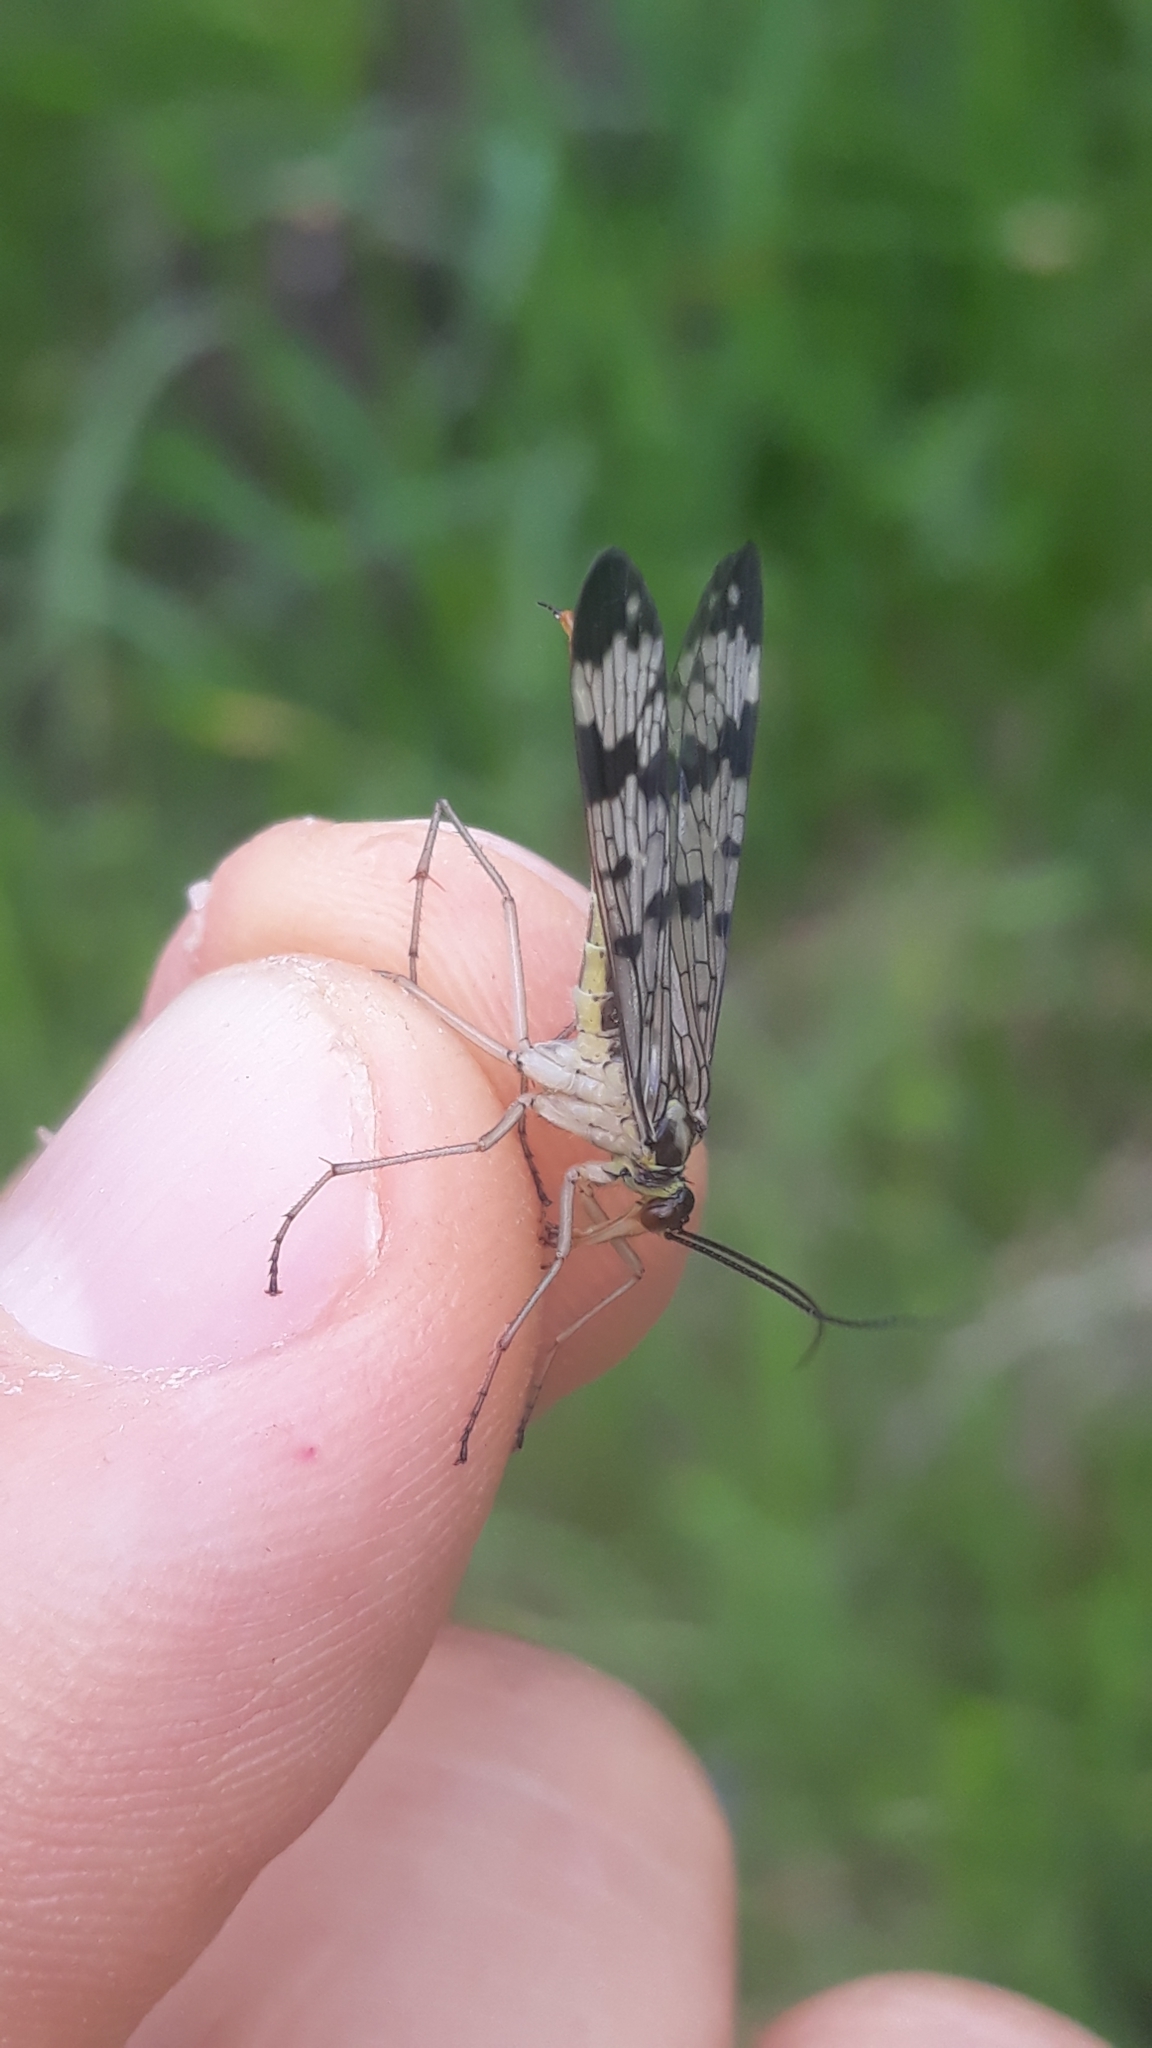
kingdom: Animalia
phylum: Arthropoda
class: Insecta
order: Mecoptera
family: Panorpidae
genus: Panorpa
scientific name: Panorpa communis
